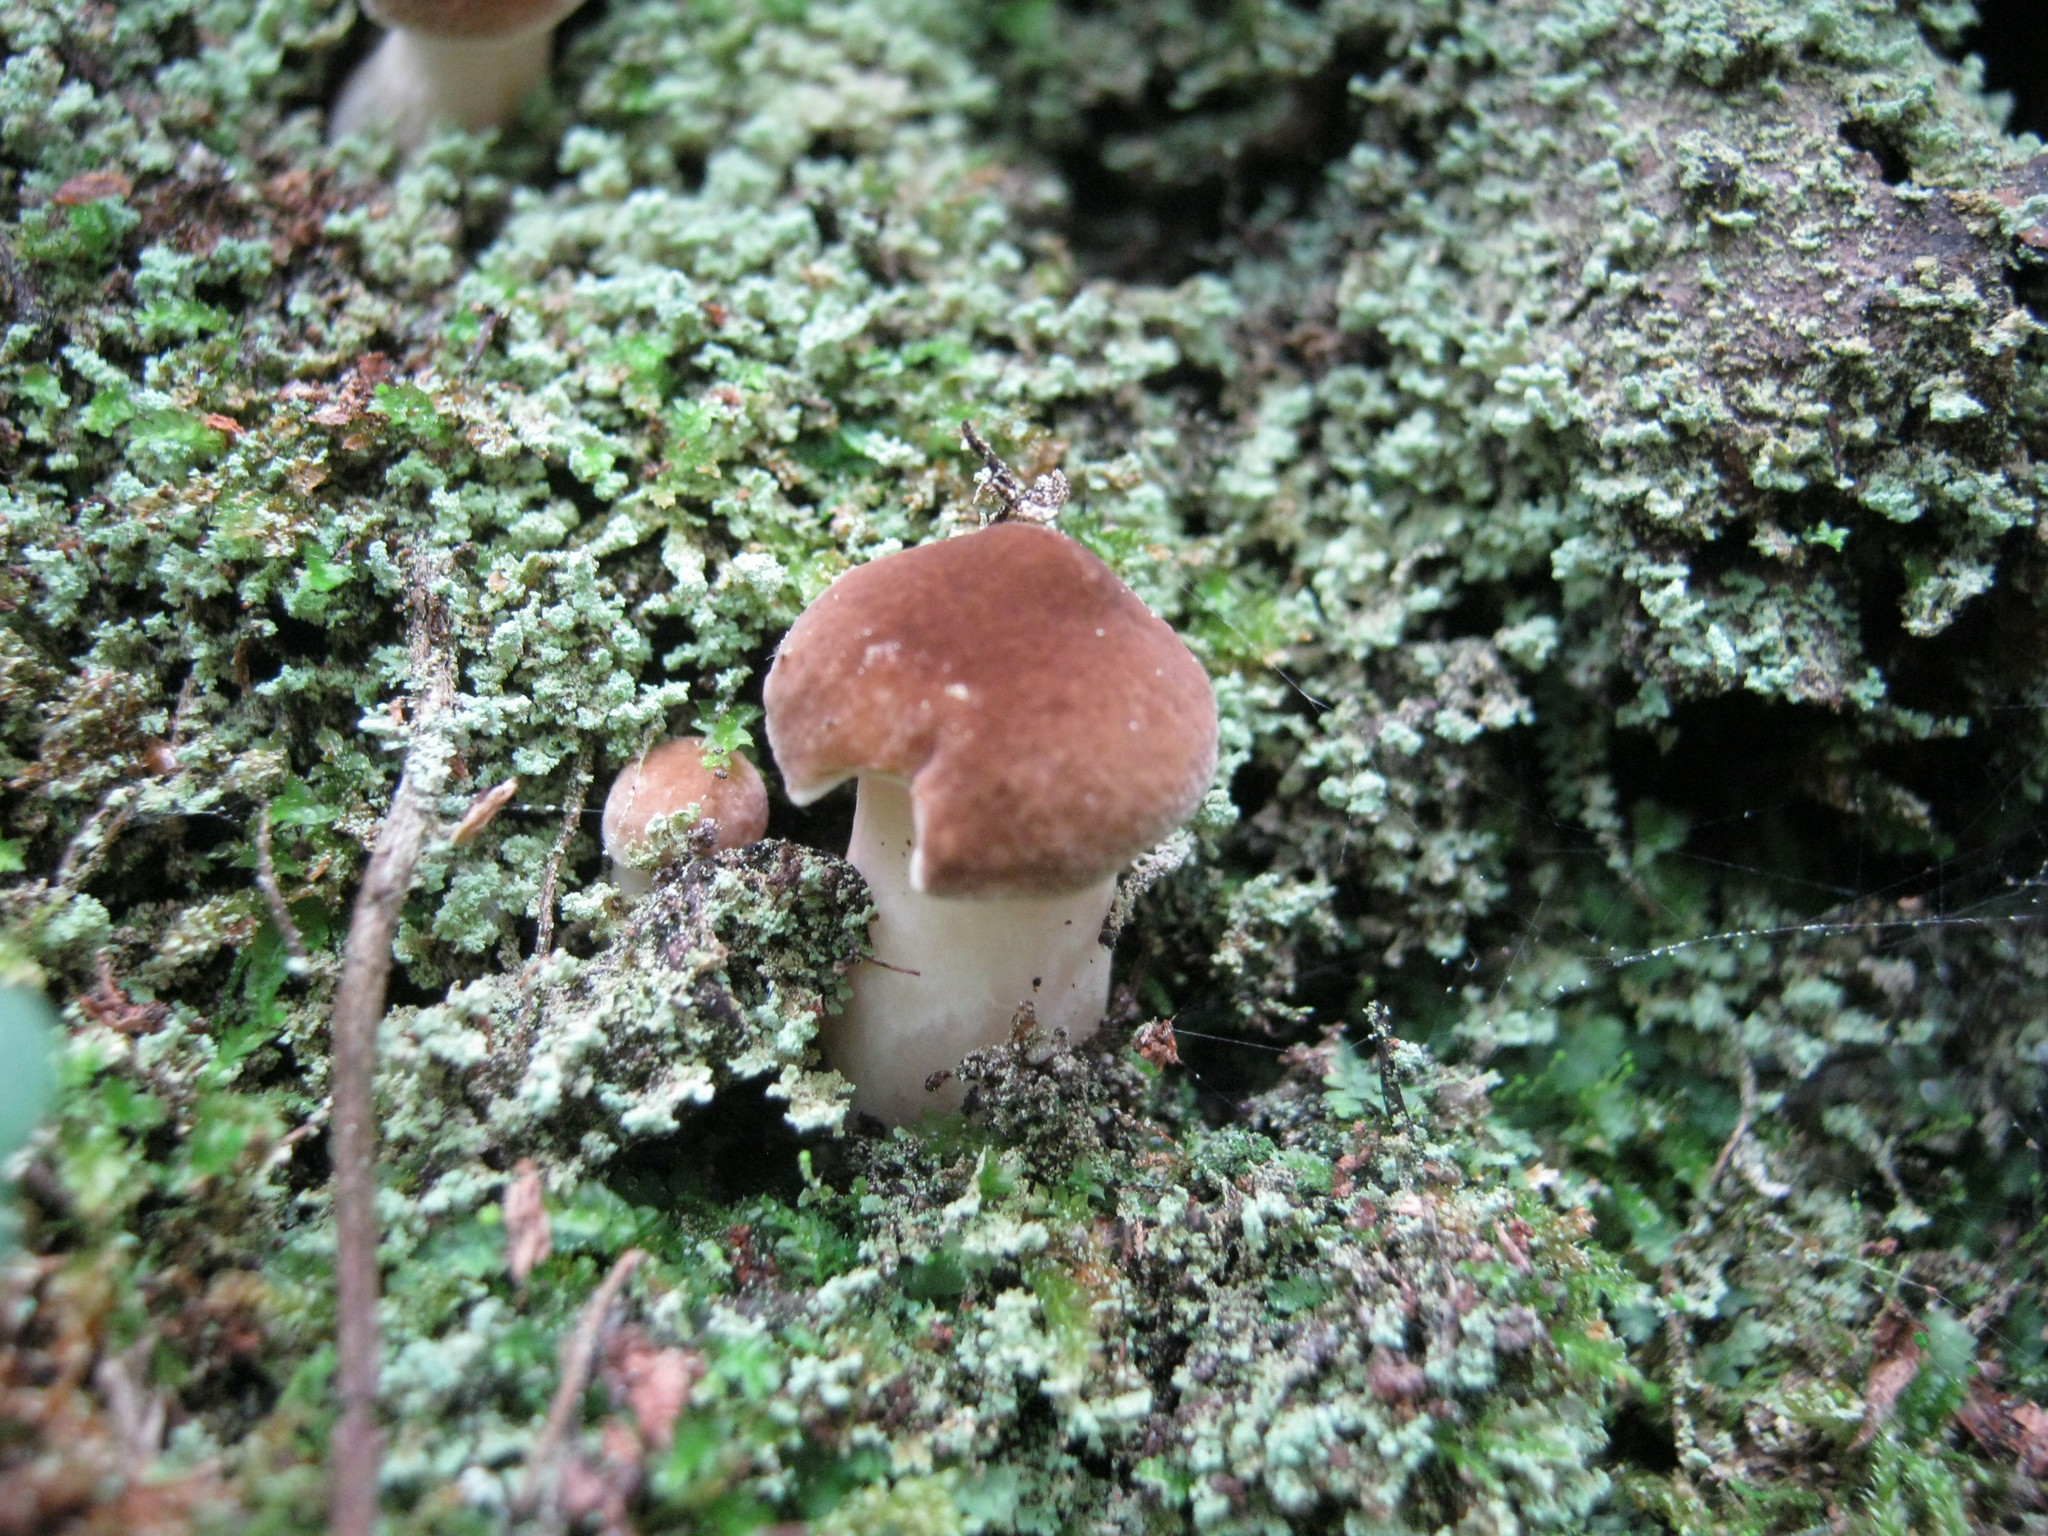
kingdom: Fungi
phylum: Basidiomycota
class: Agaricomycetes
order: Boletales
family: Boletaceae
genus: Xanthoconium
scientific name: Xanthoconium separans
